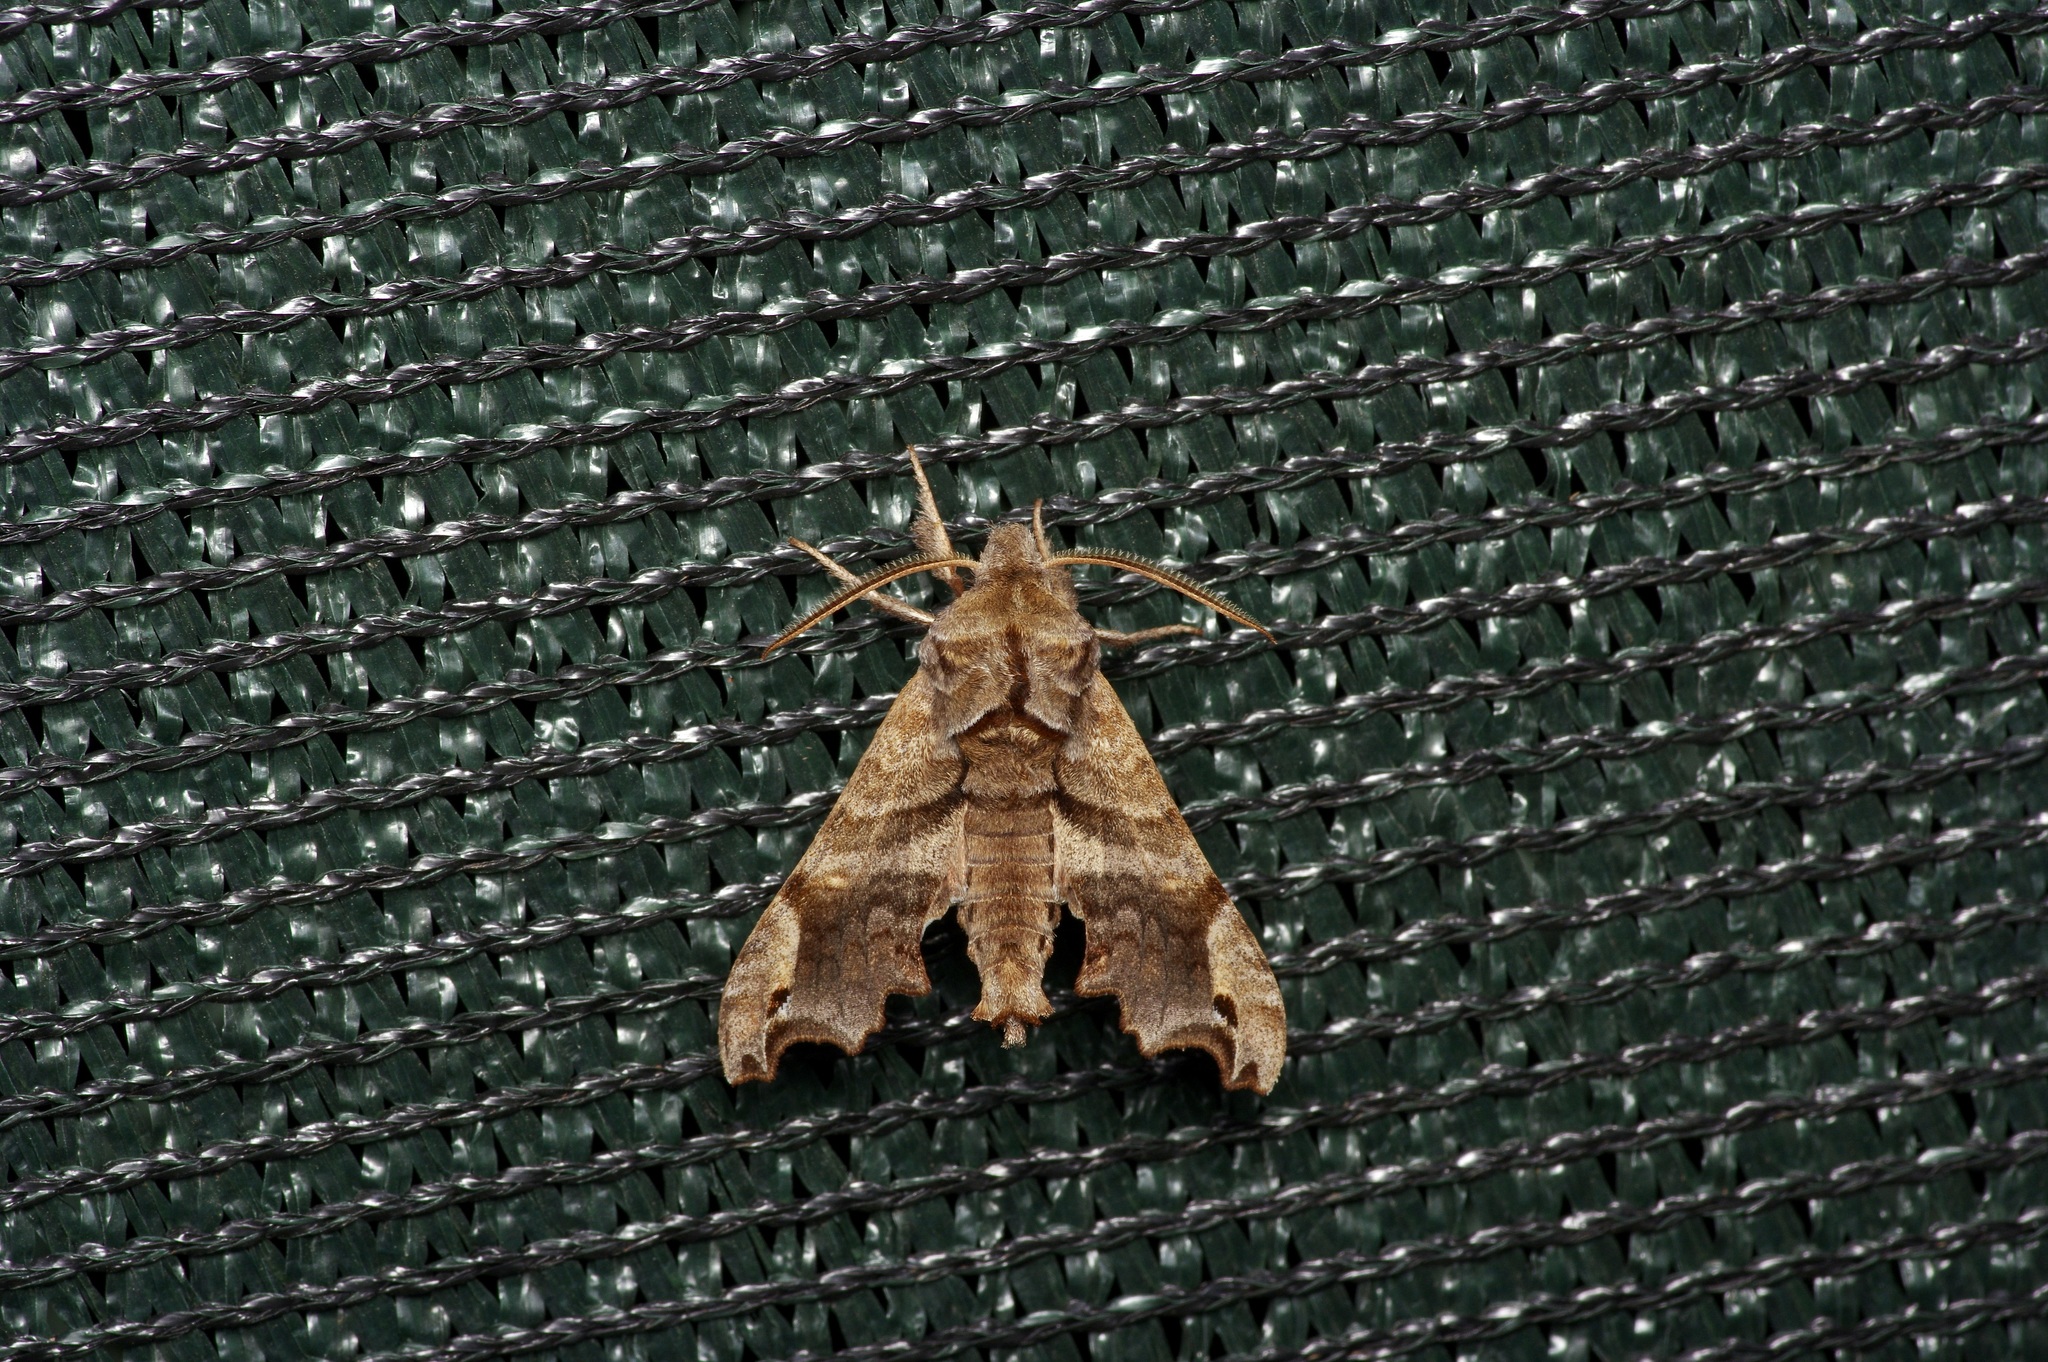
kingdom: Animalia
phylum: Arthropoda
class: Insecta
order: Lepidoptera
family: Sphingidae
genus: Deidamia
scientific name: Deidamia inscriptum
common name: Lettered sphinx
